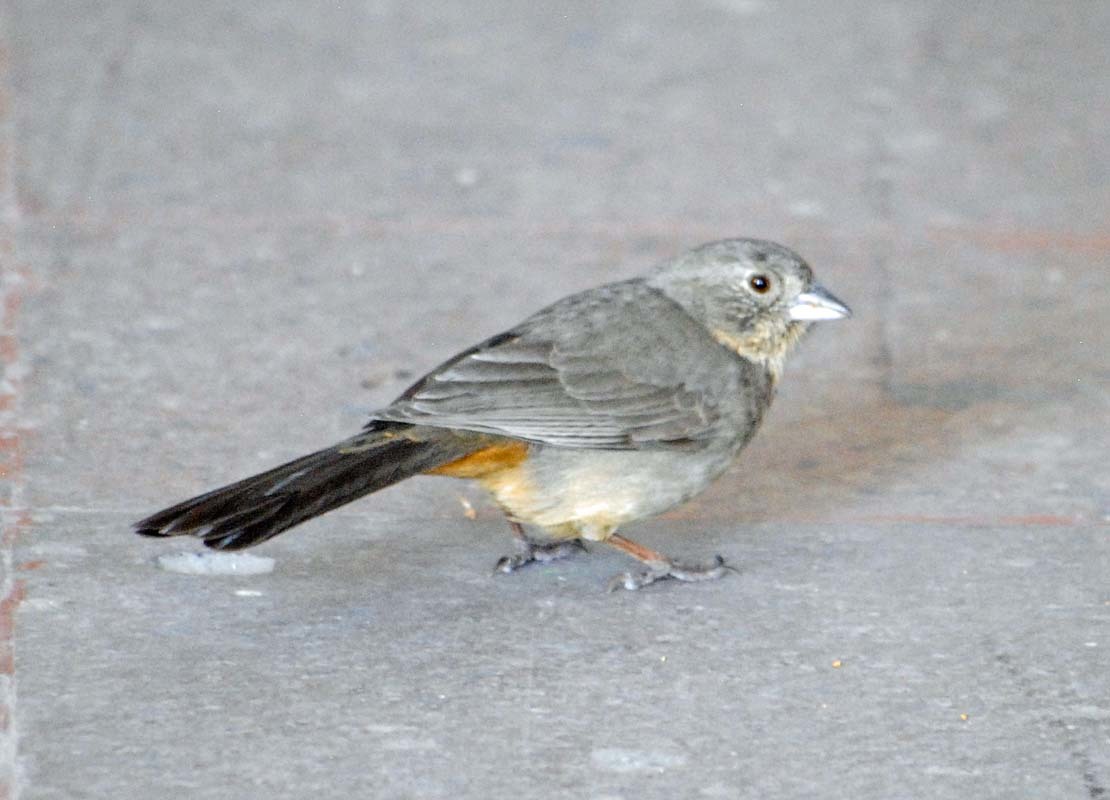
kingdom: Animalia
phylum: Chordata
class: Aves
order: Passeriformes
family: Passerellidae
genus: Melozone
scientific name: Melozone fusca
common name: Canyon towhee
